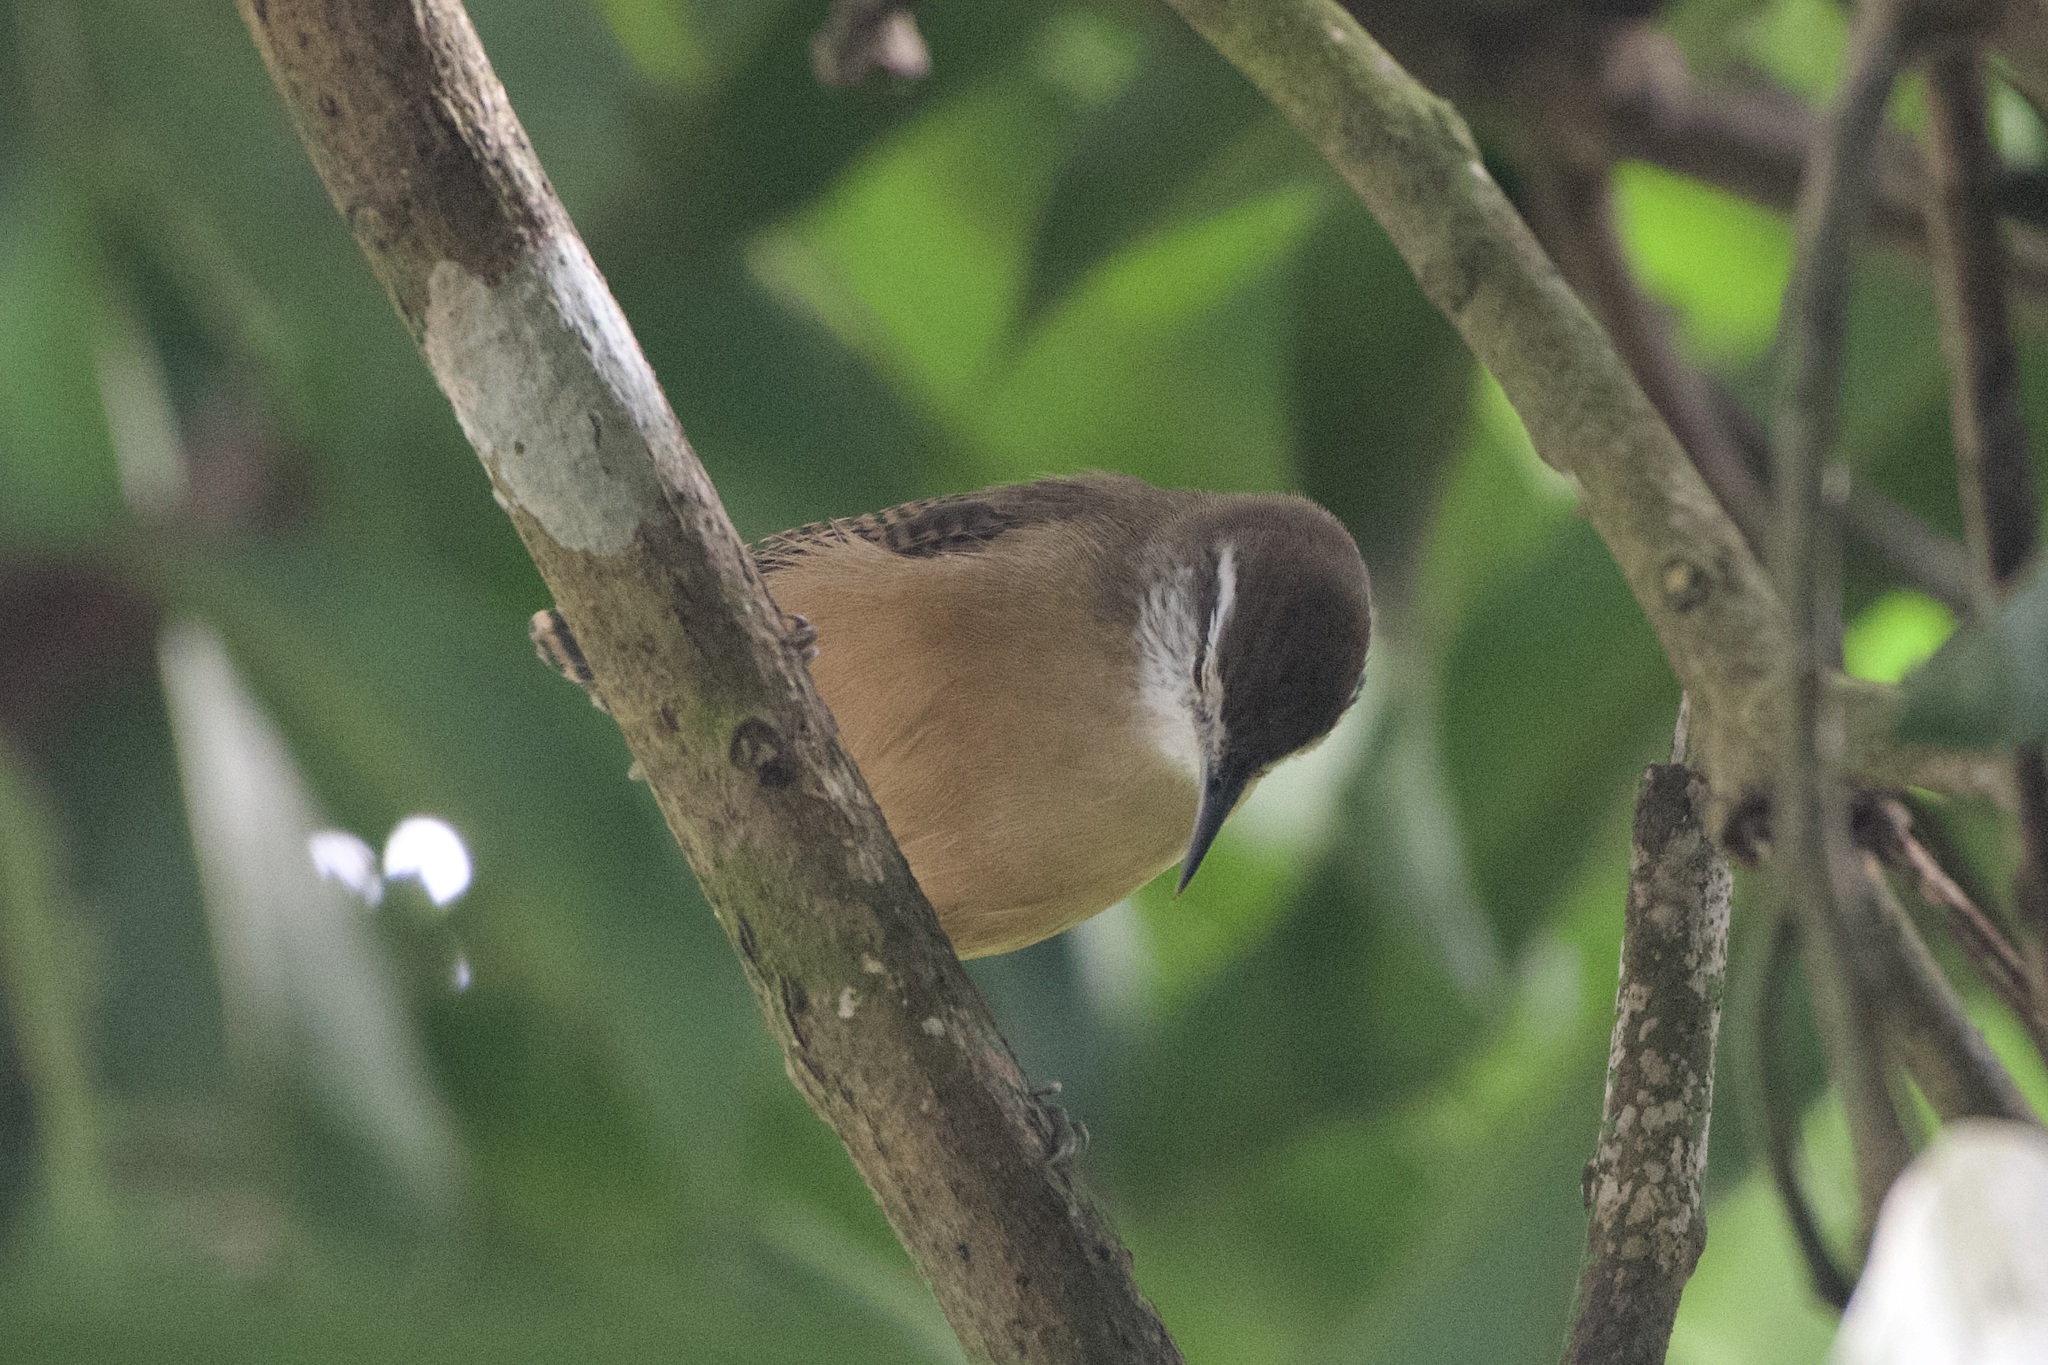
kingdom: Animalia
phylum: Chordata
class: Aves
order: Passeriformes
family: Troglodytidae
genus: Cantorchilus
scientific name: Cantorchilus leucotis
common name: Buff-breasted wren
